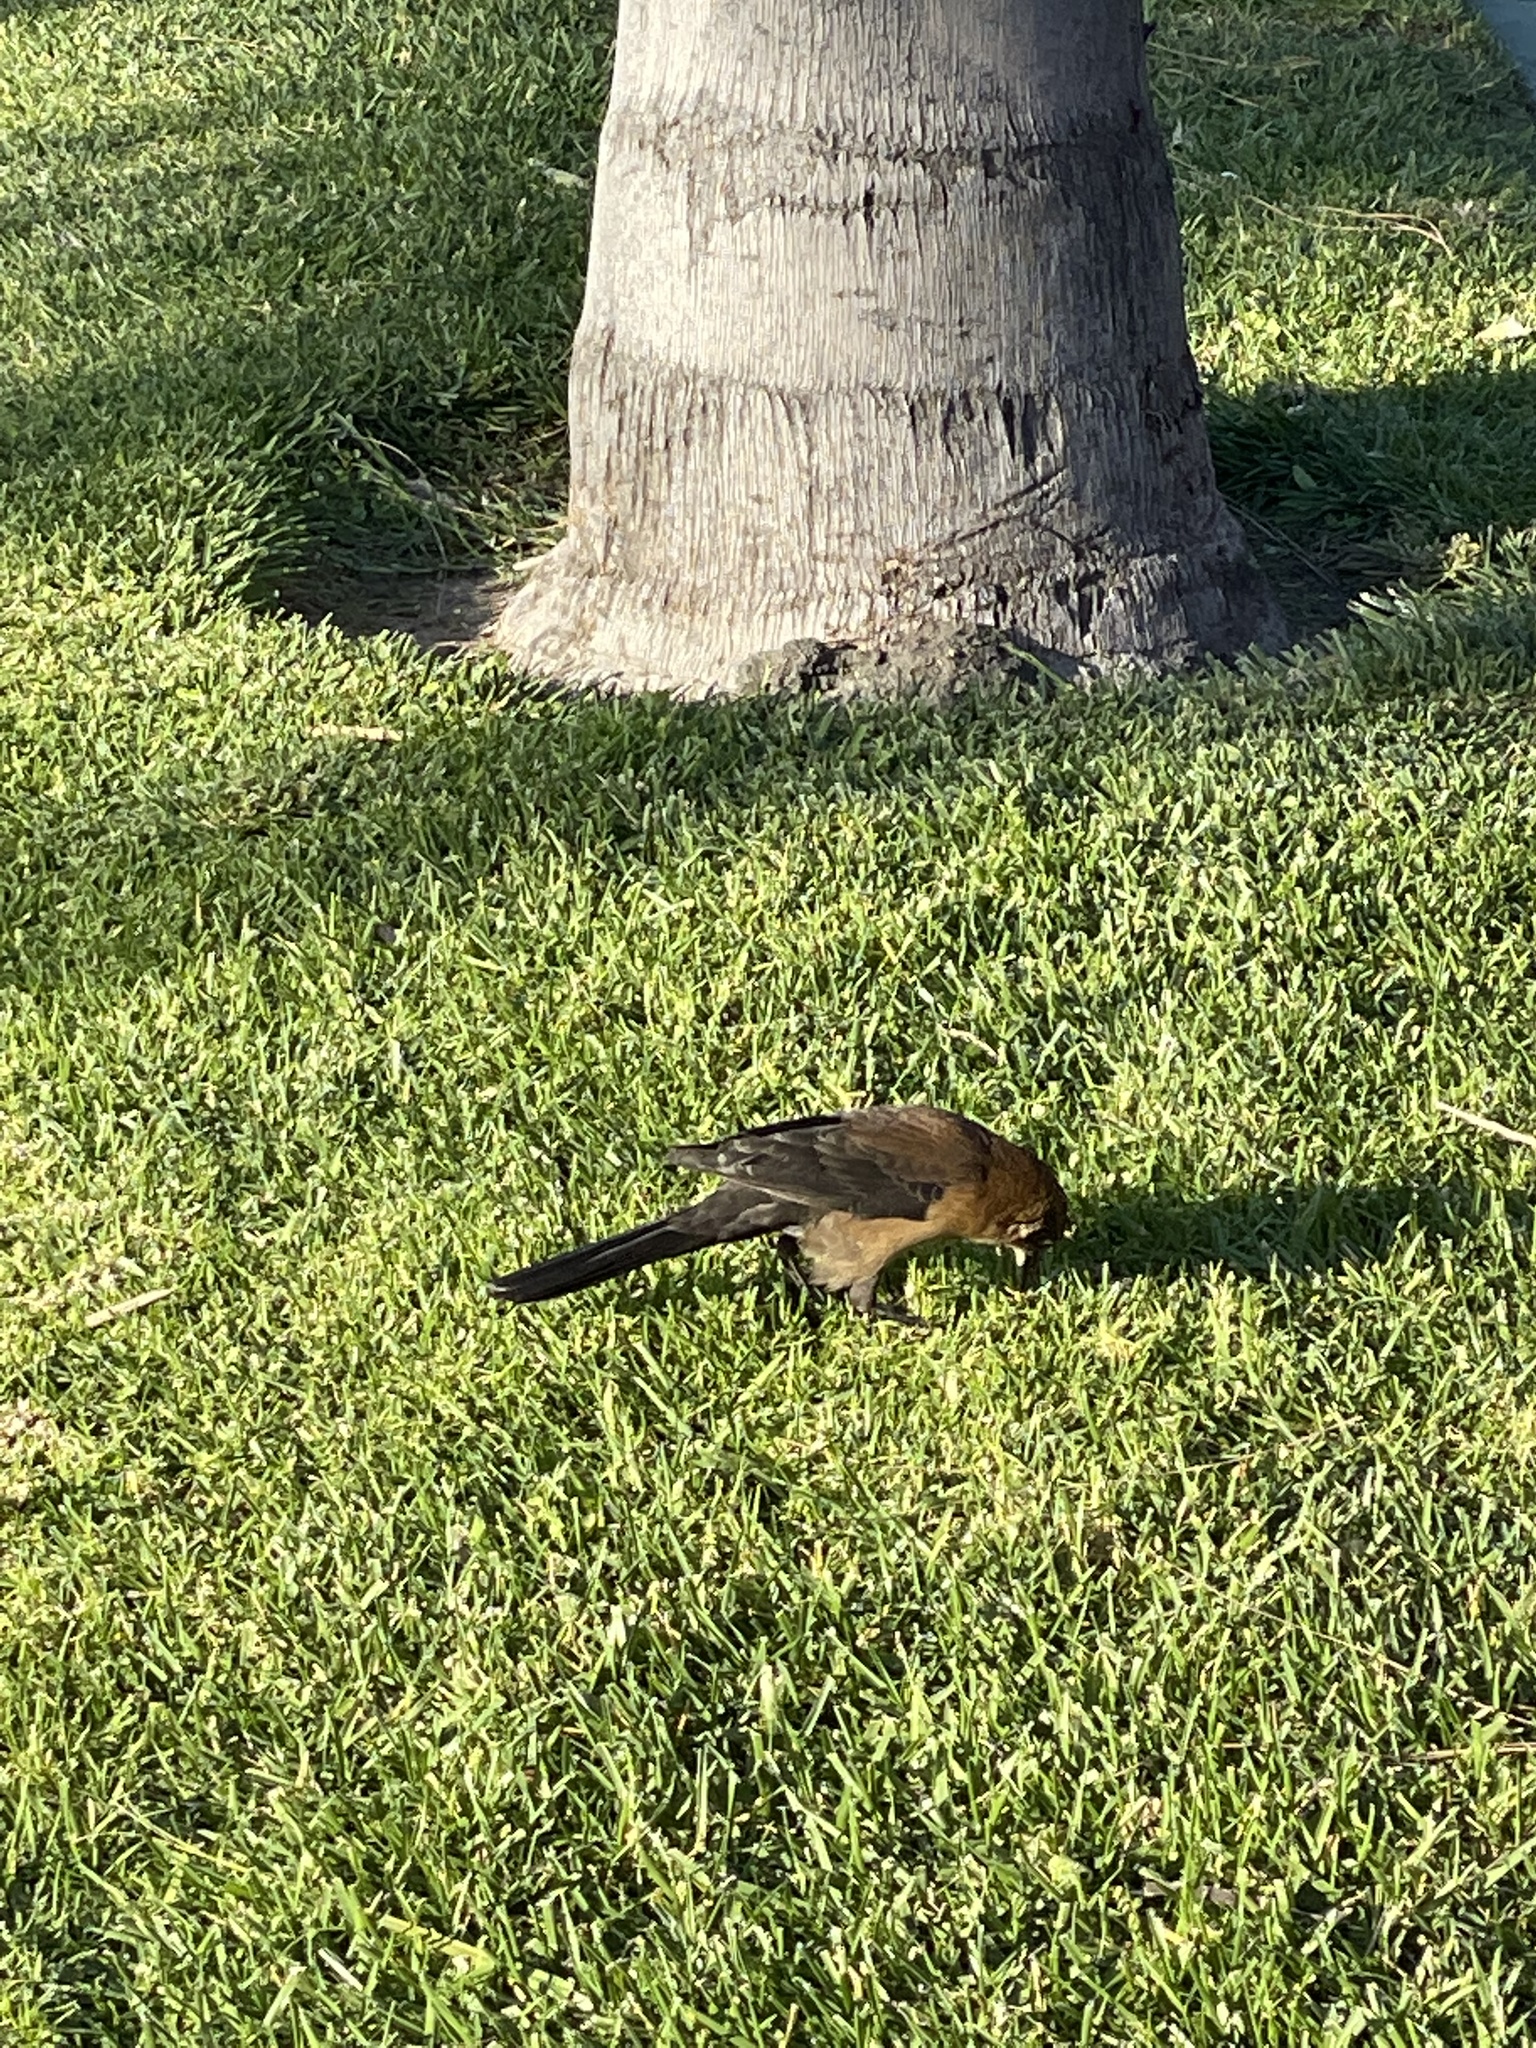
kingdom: Animalia
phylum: Chordata
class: Aves
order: Passeriformes
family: Icteridae
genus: Quiscalus
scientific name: Quiscalus mexicanus
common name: Great-tailed grackle
